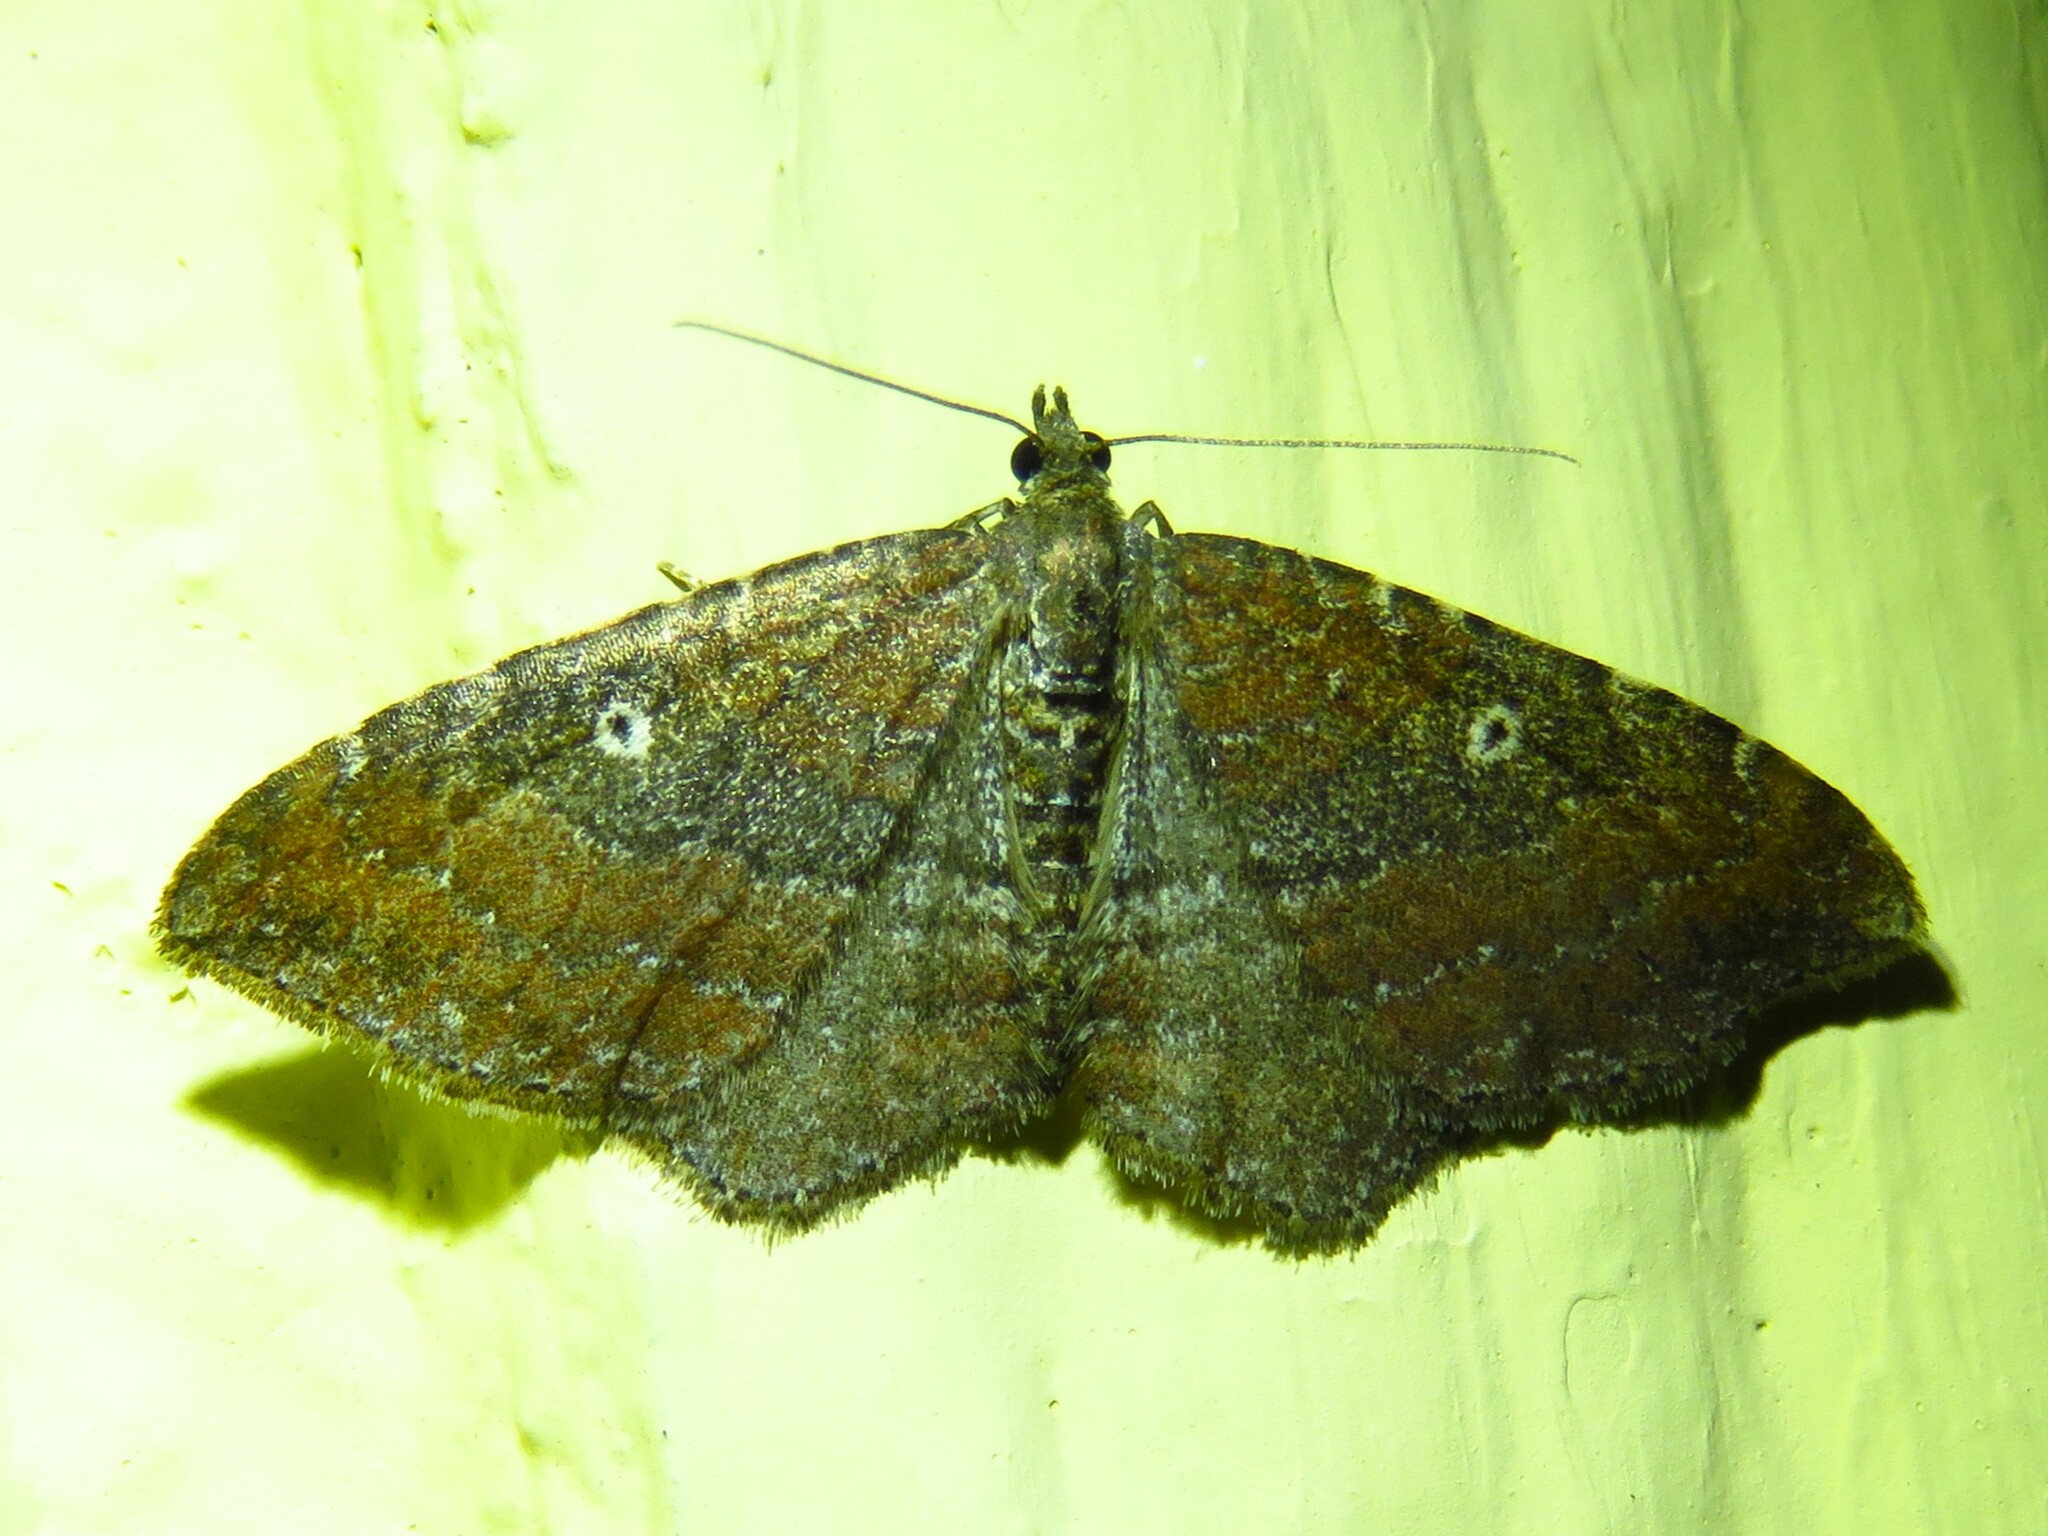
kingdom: Animalia
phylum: Arthropoda
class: Insecta
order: Lepidoptera
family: Geometridae
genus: Orthonama
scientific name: Orthonama obstipata
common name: The gem
